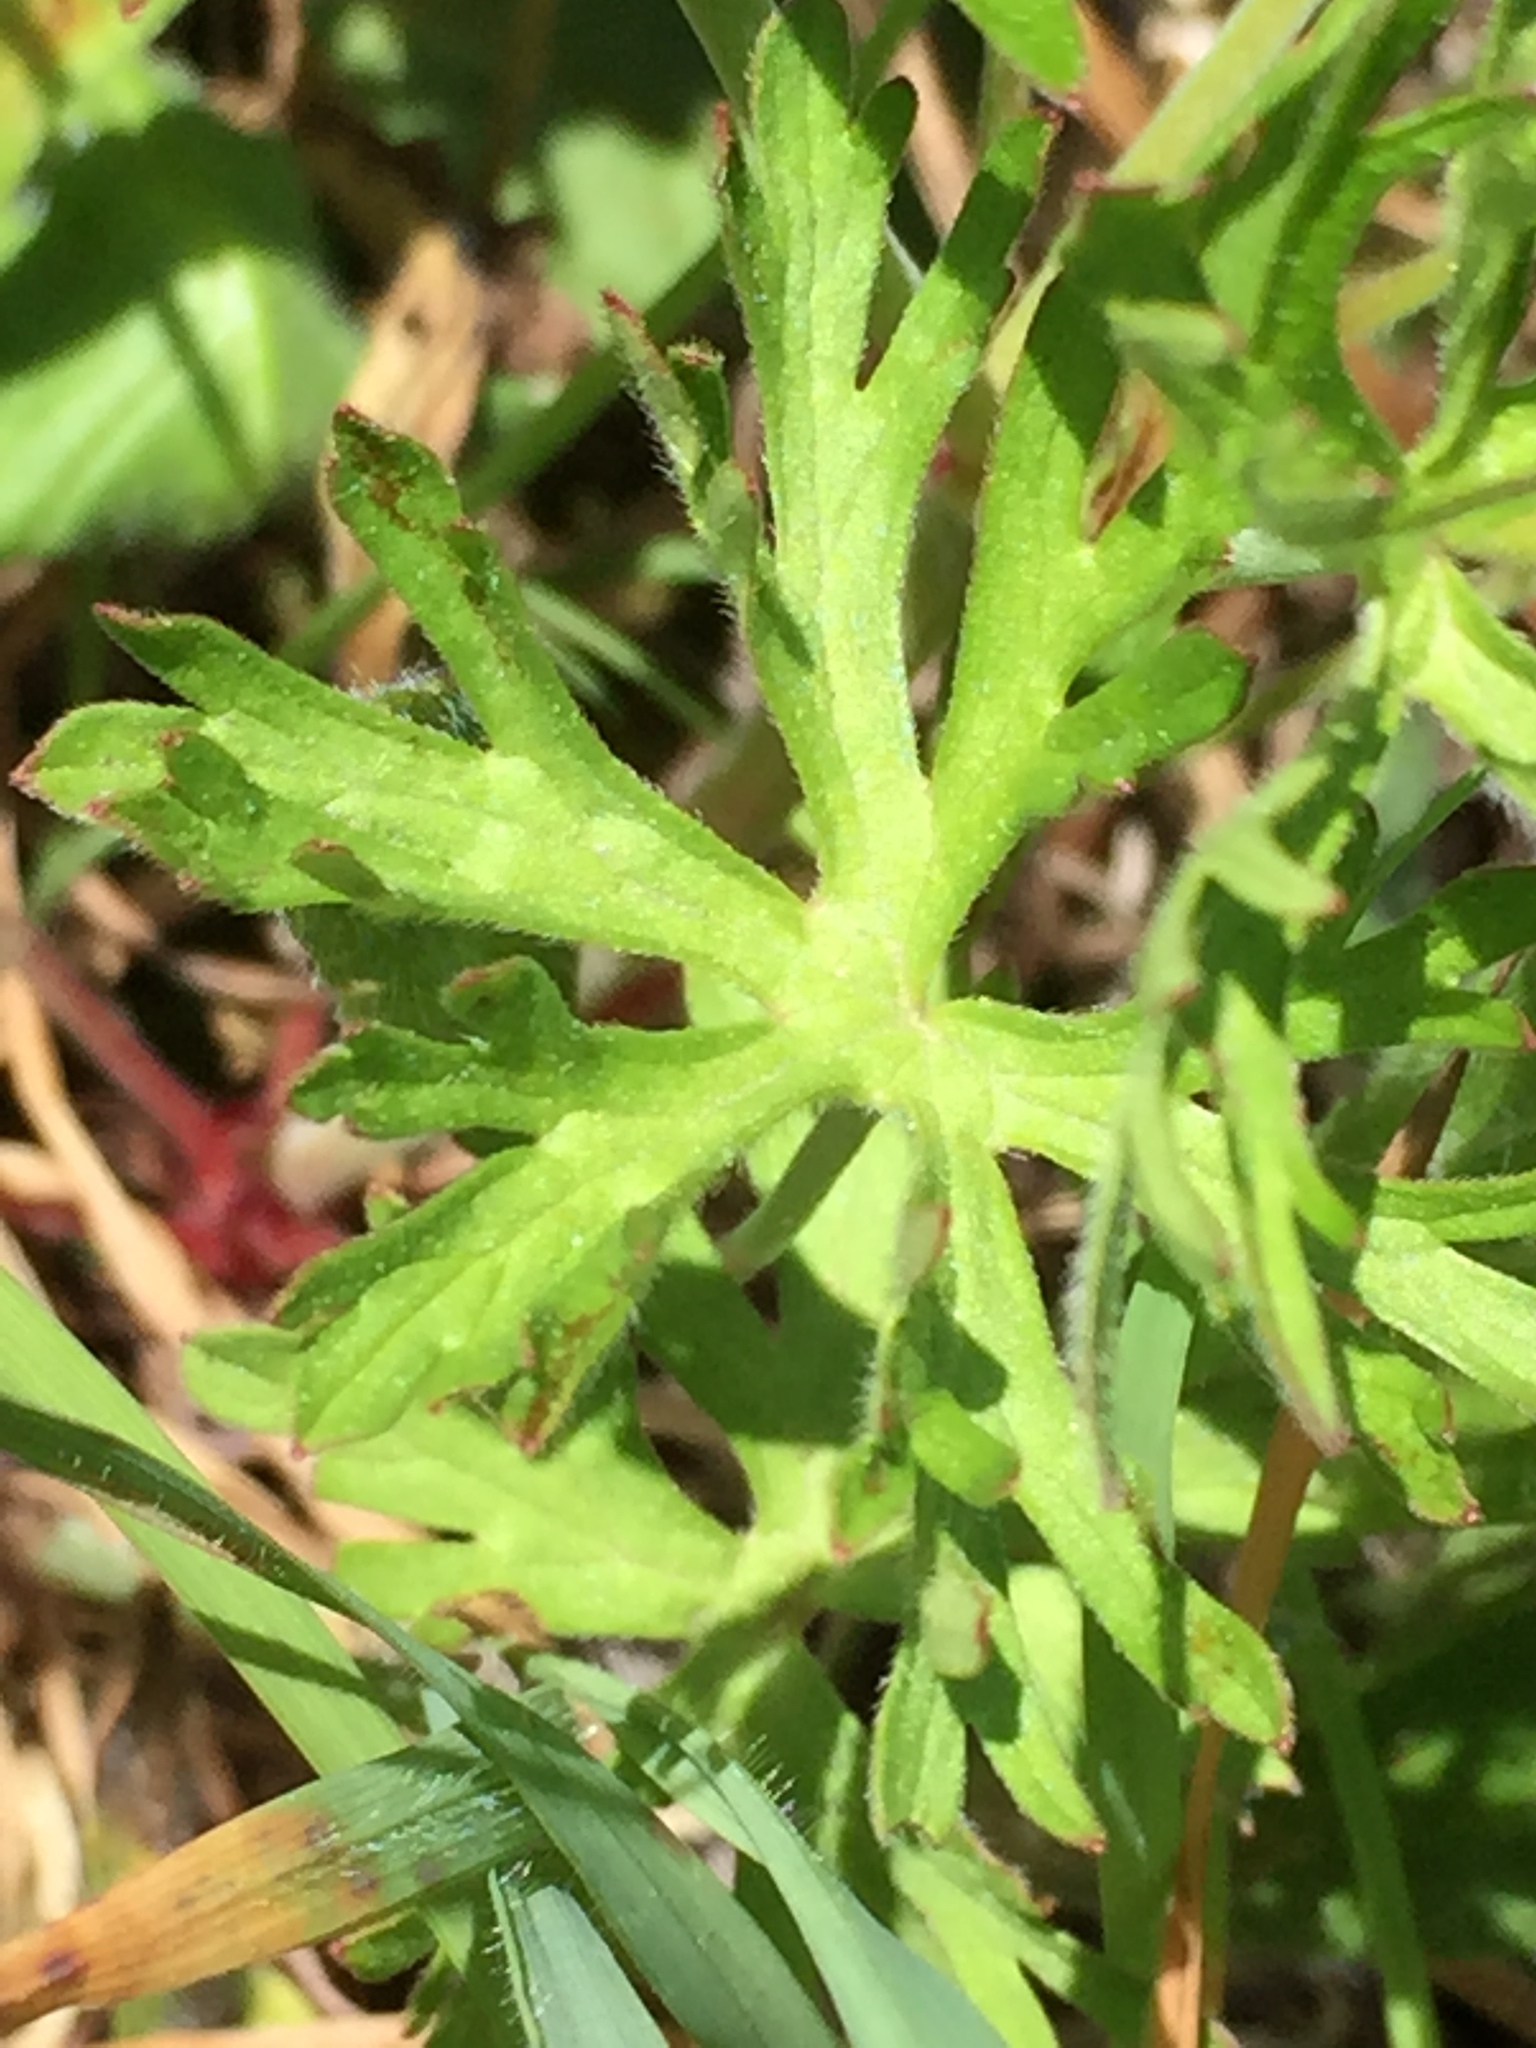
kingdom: Plantae
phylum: Tracheophyta
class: Magnoliopsida
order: Geraniales
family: Geraniaceae
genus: Geranium
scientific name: Geranium dissectum
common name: Cut-leaved crane's-bill
